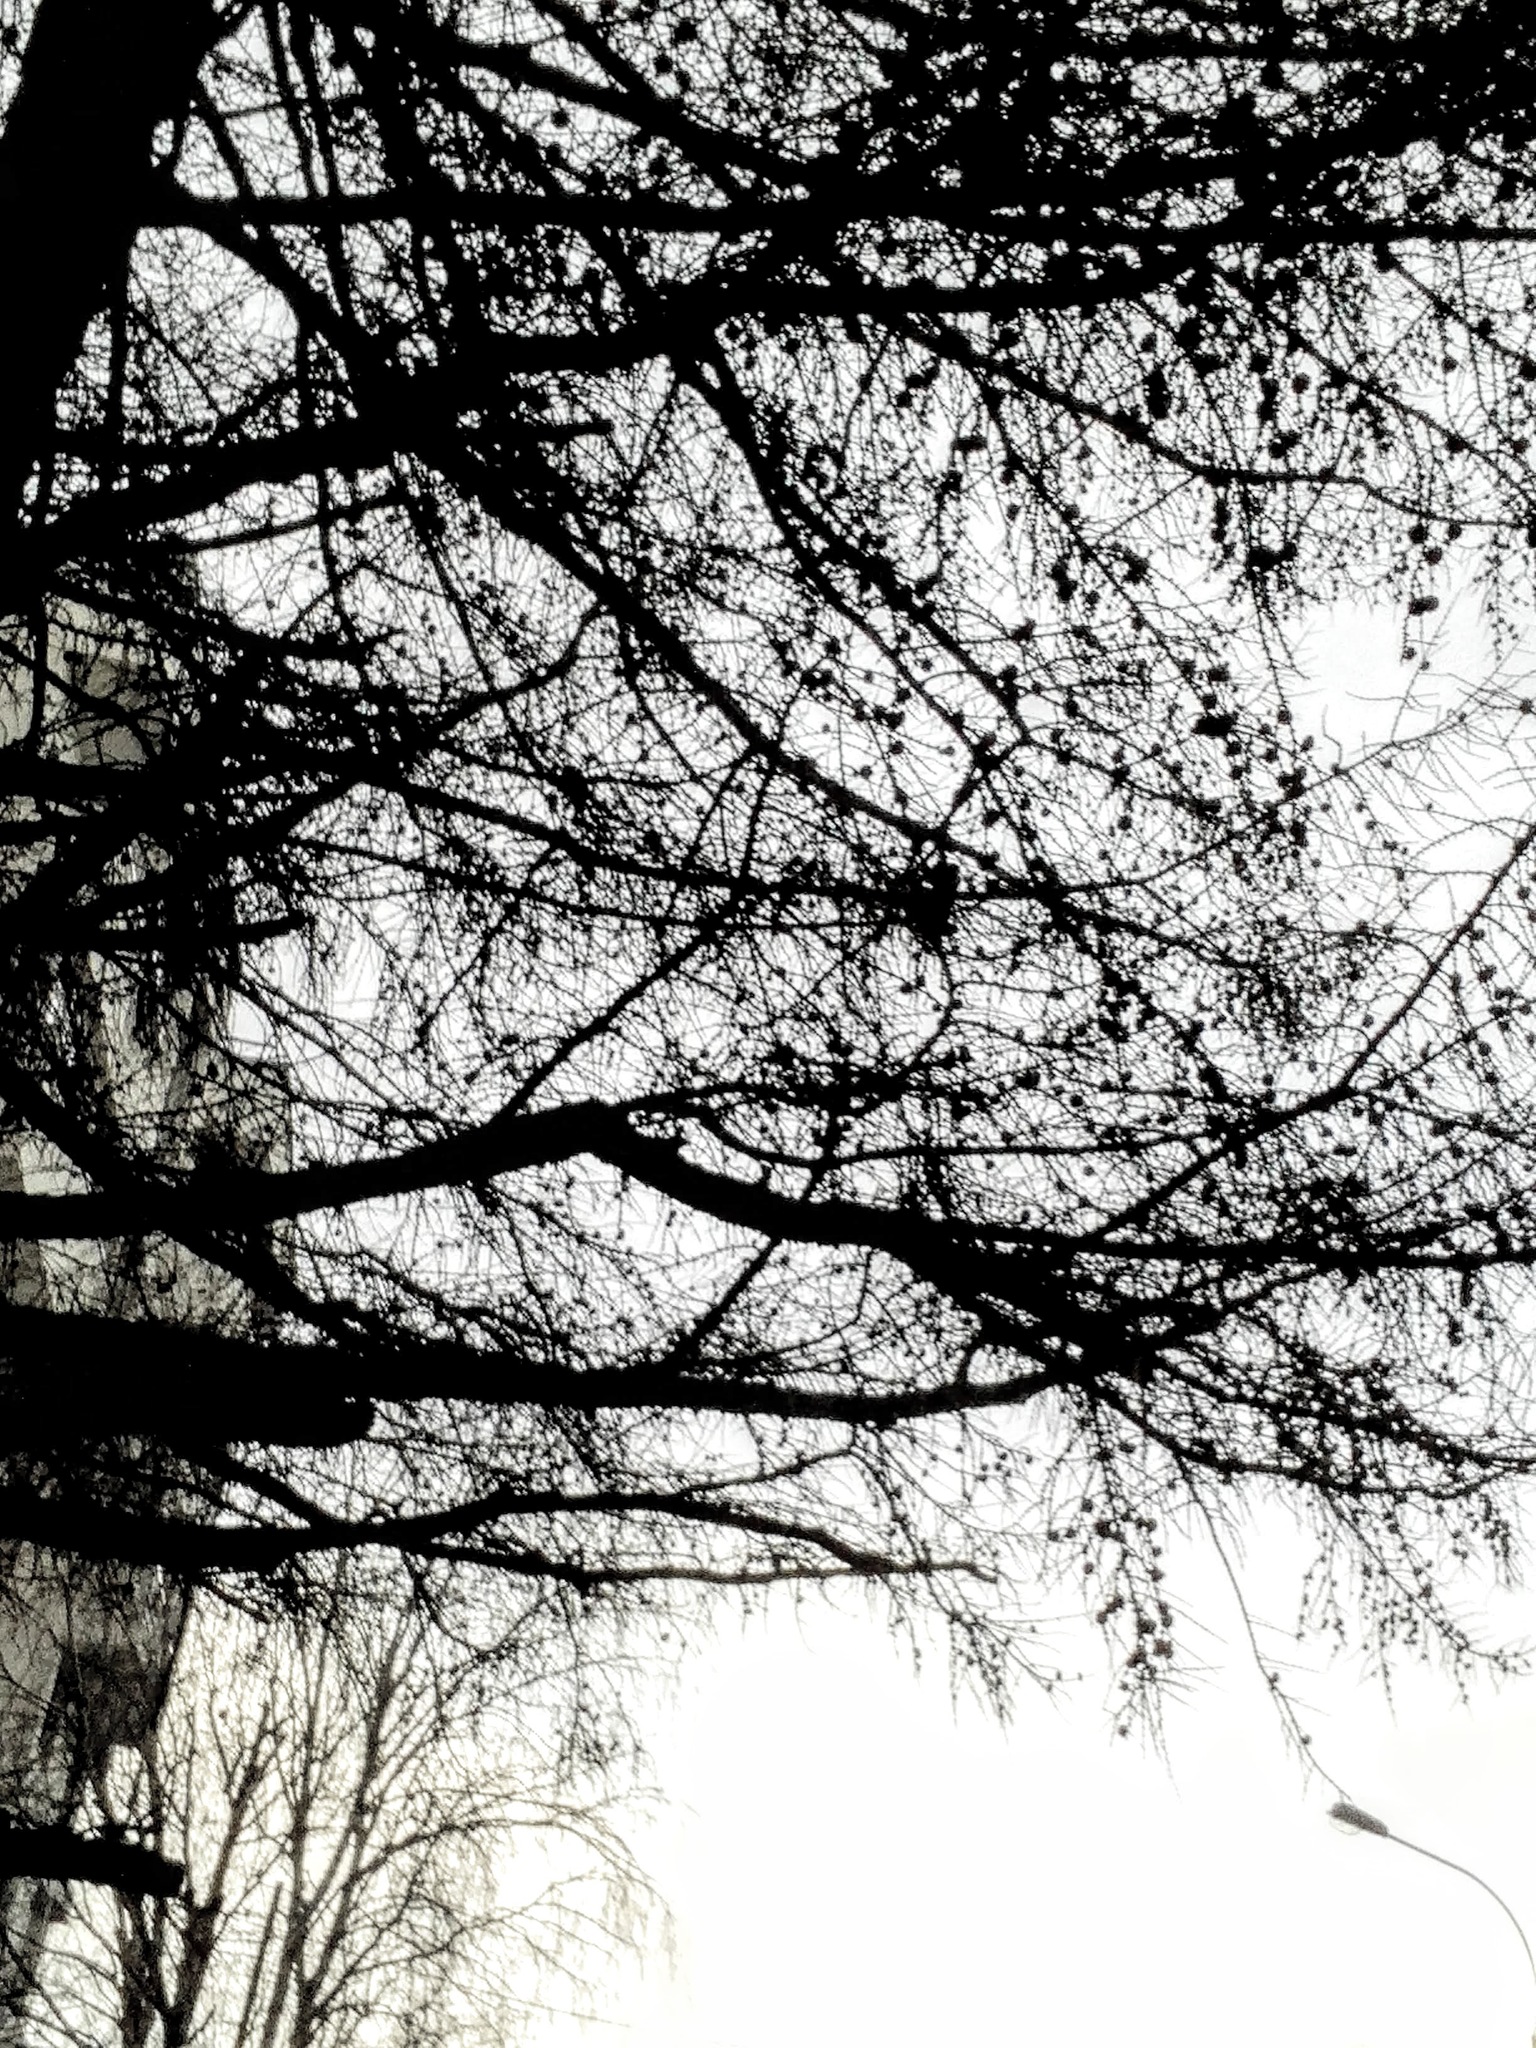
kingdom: Plantae
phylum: Tracheophyta
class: Pinopsida
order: Pinales
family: Pinaceae
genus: Larix
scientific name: Larix sibirica
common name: Siberian larch
